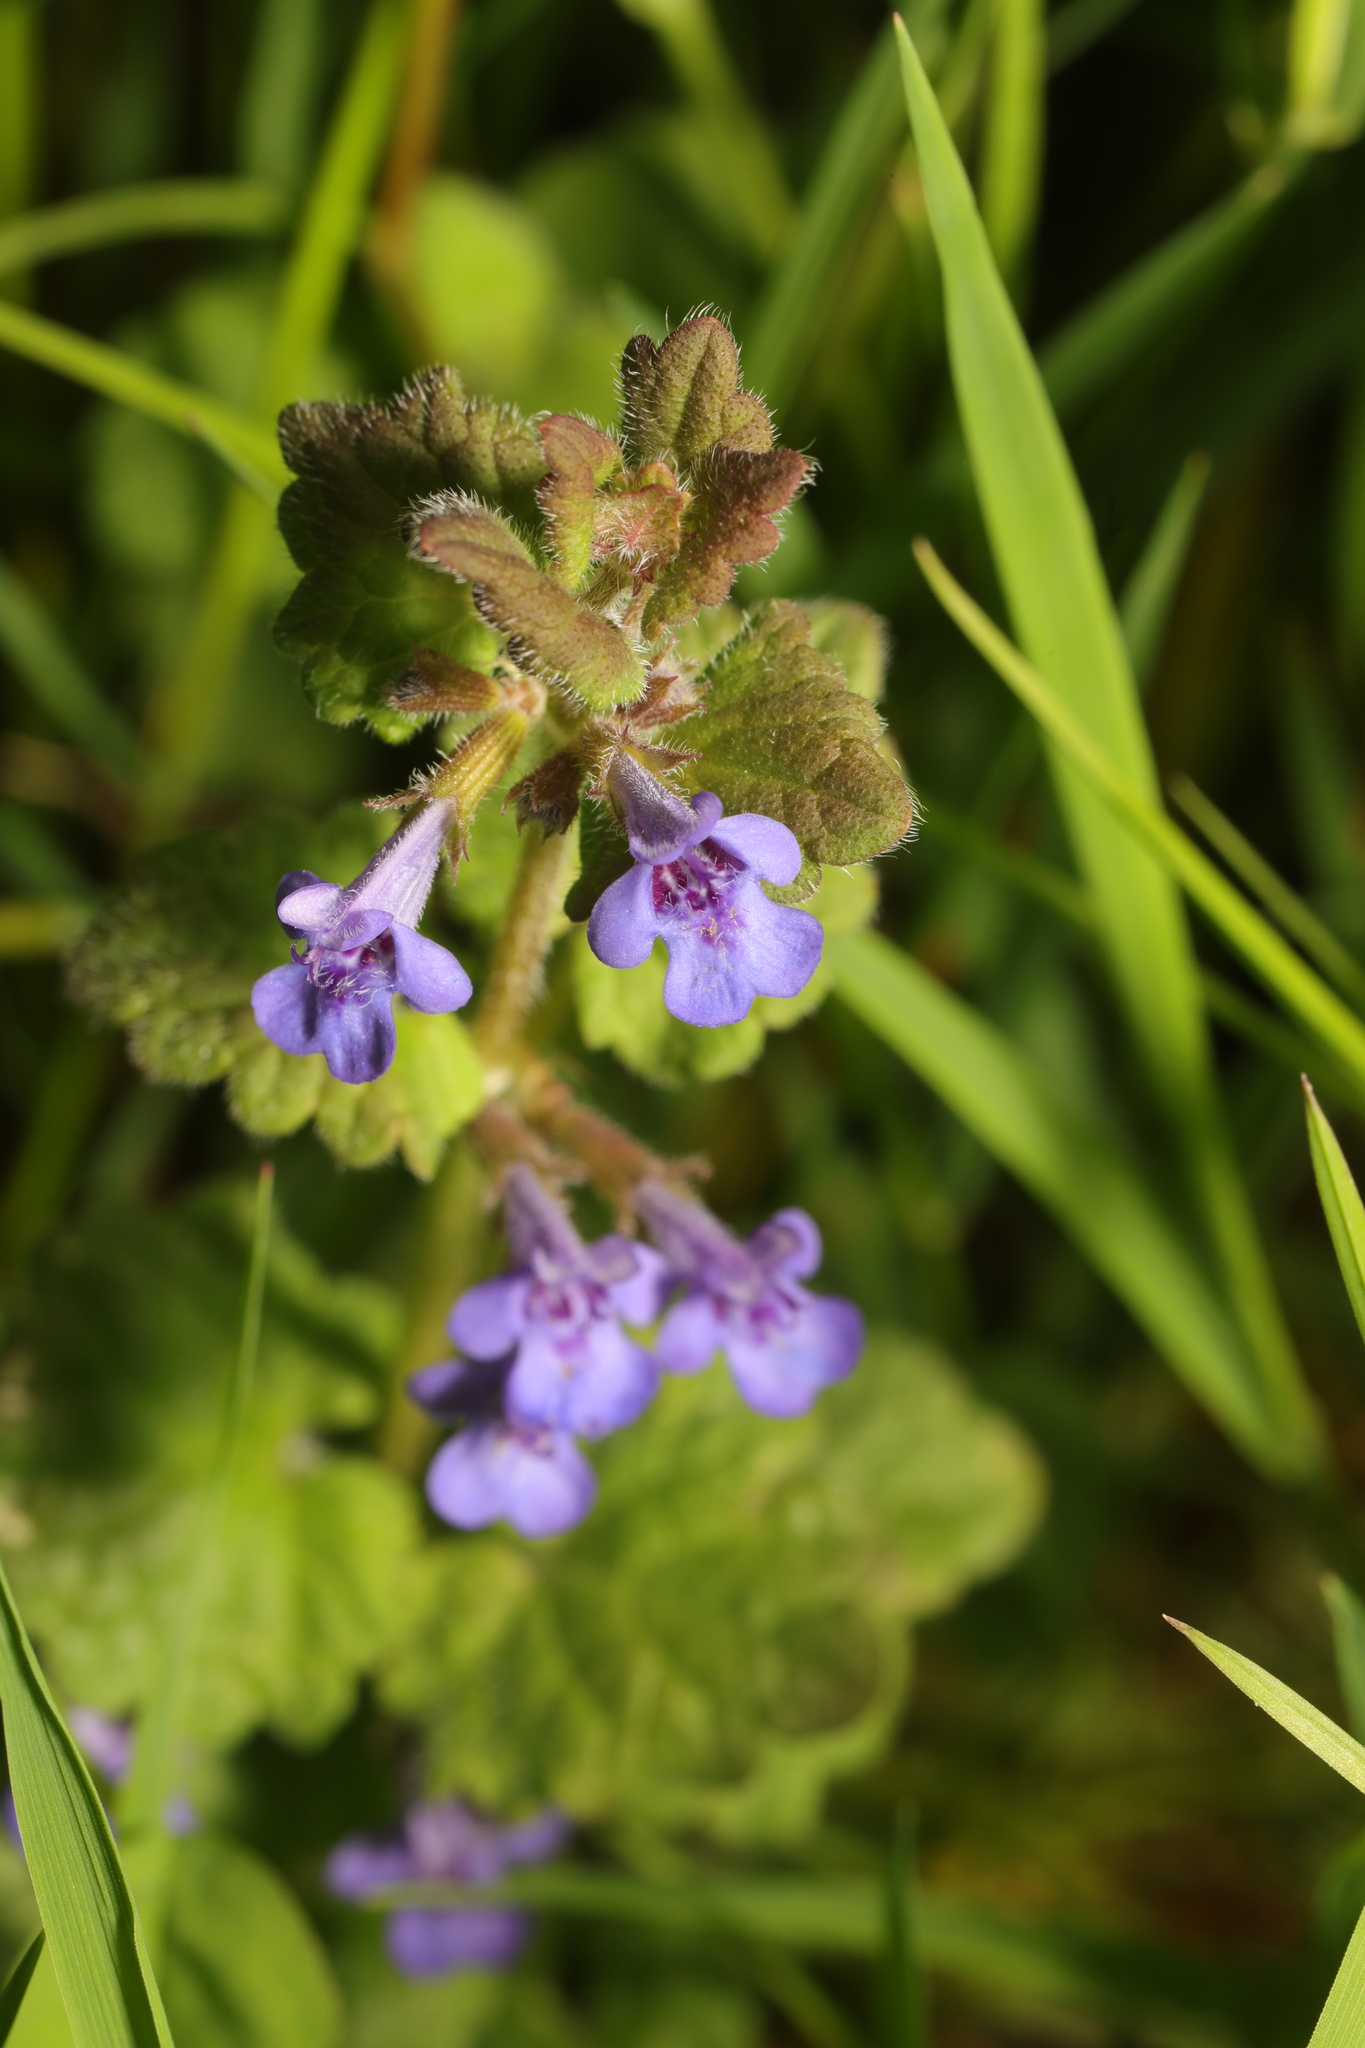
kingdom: Plantae
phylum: Tracheophyta
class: Magnoliopsida
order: Lamiales
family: Lamiaceae
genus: Glechoma
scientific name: Glechoma hederacea
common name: Ground ivy
